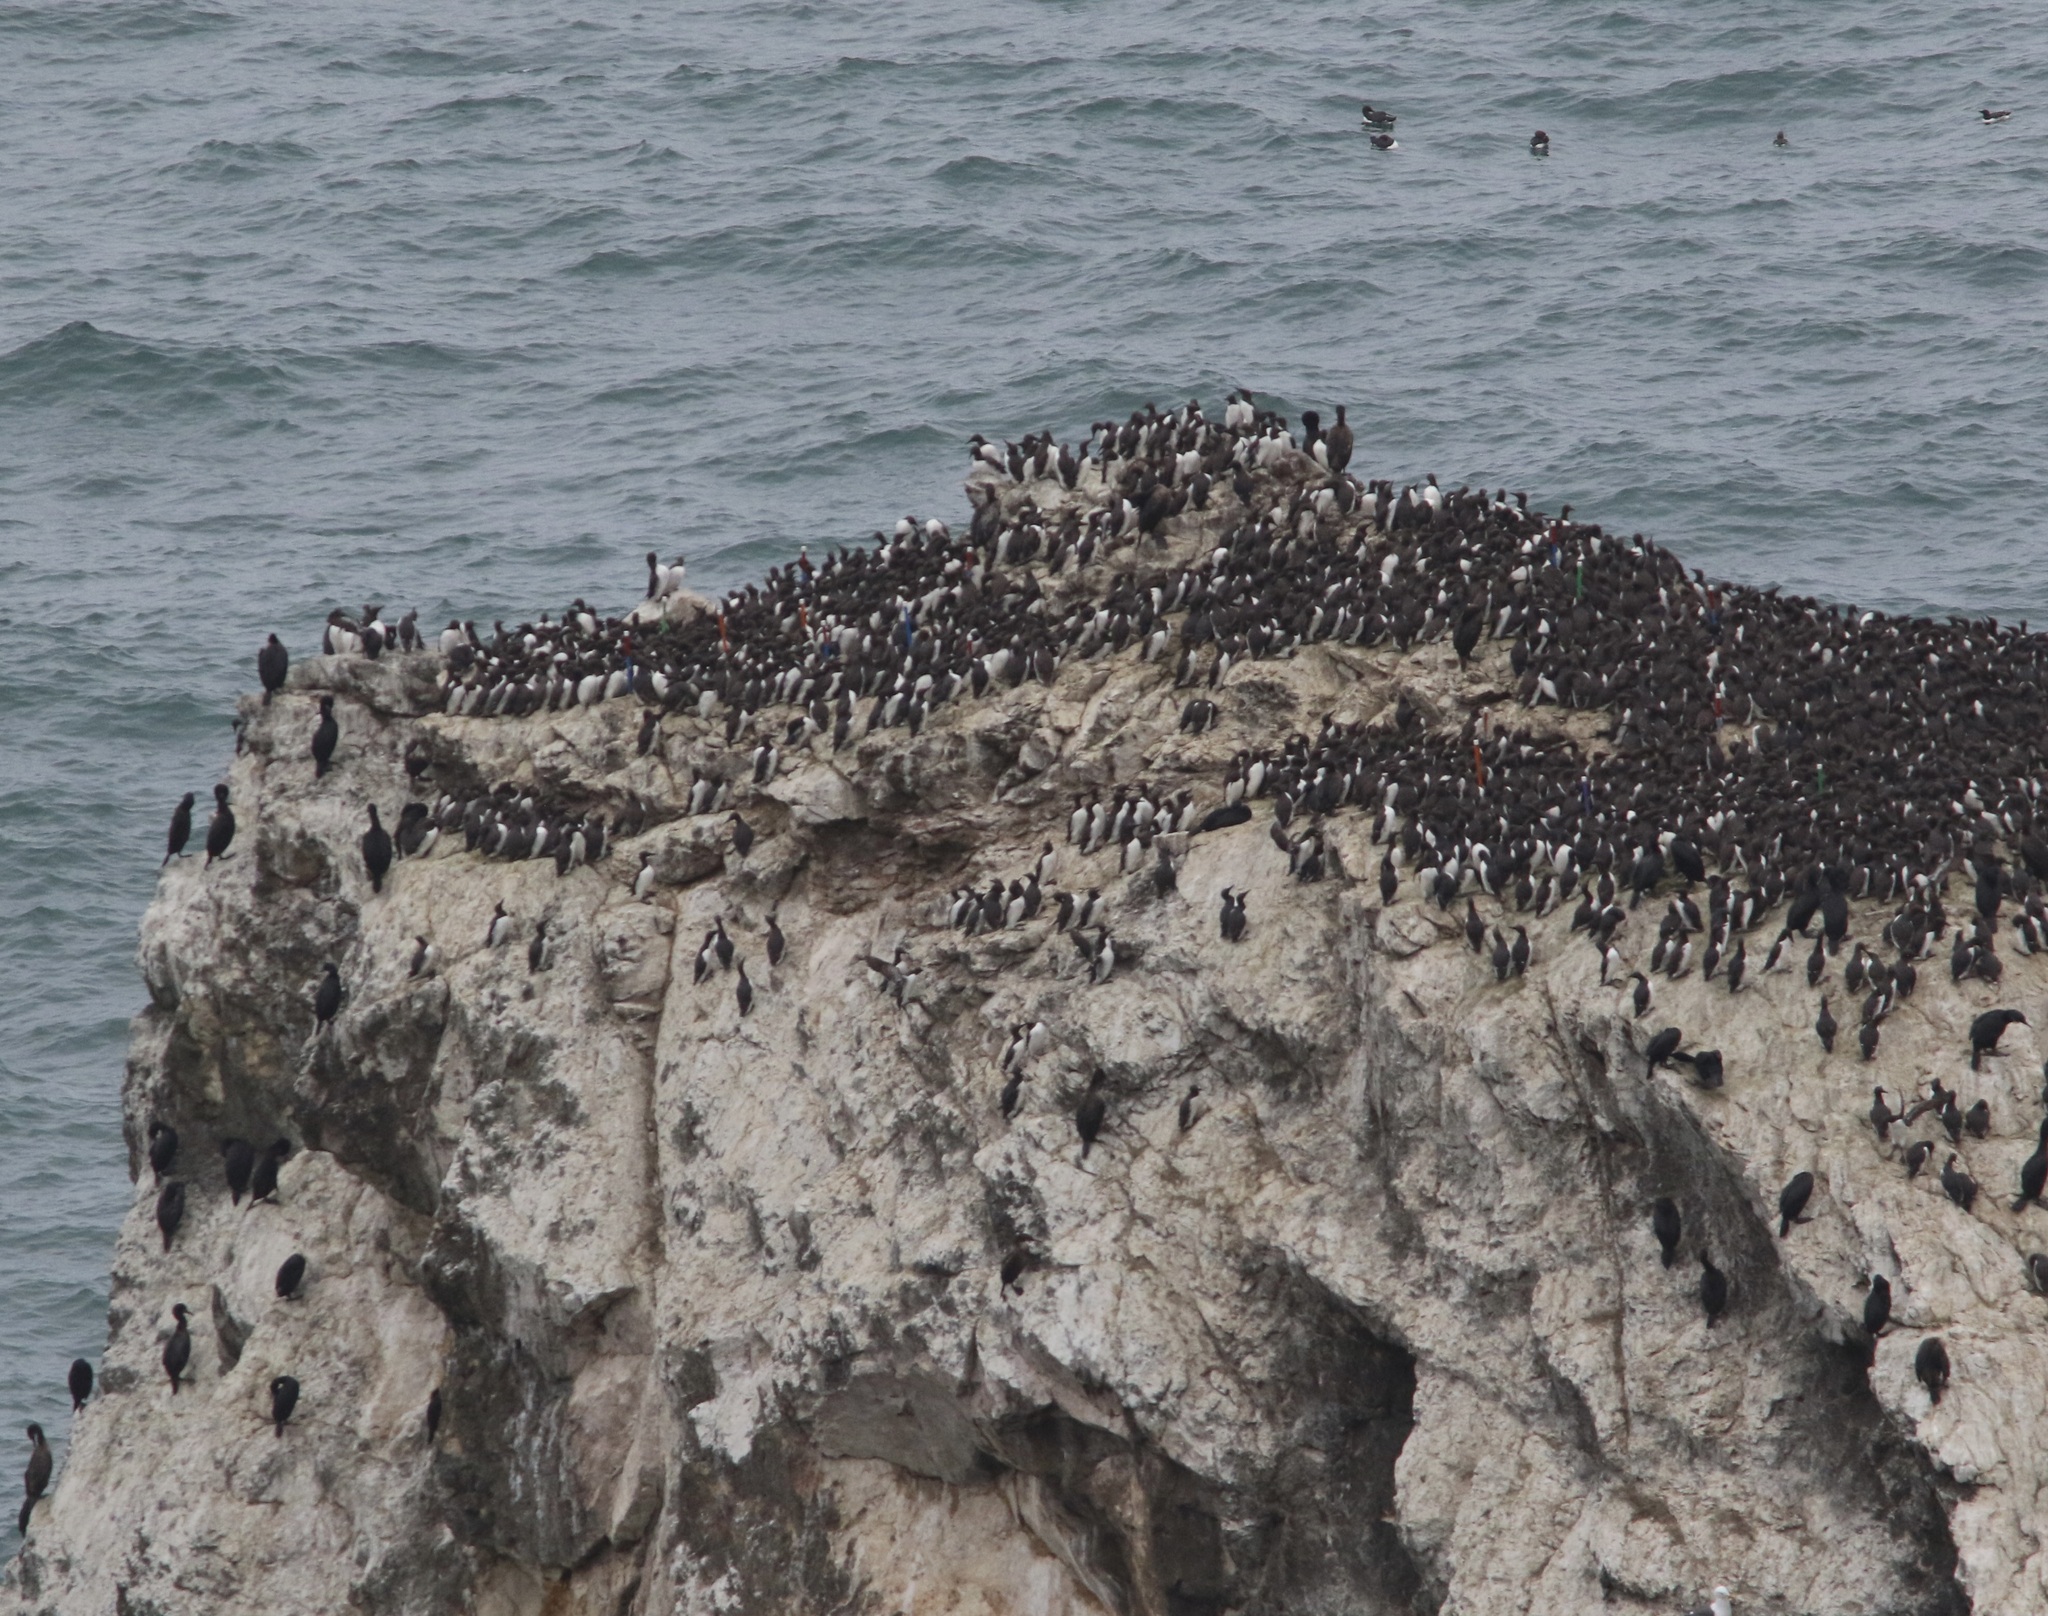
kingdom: Animalia
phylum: Chordata
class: Aves
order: Charadriiformes
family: Alcidae
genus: Uria
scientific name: Uria aalge
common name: Common murre
